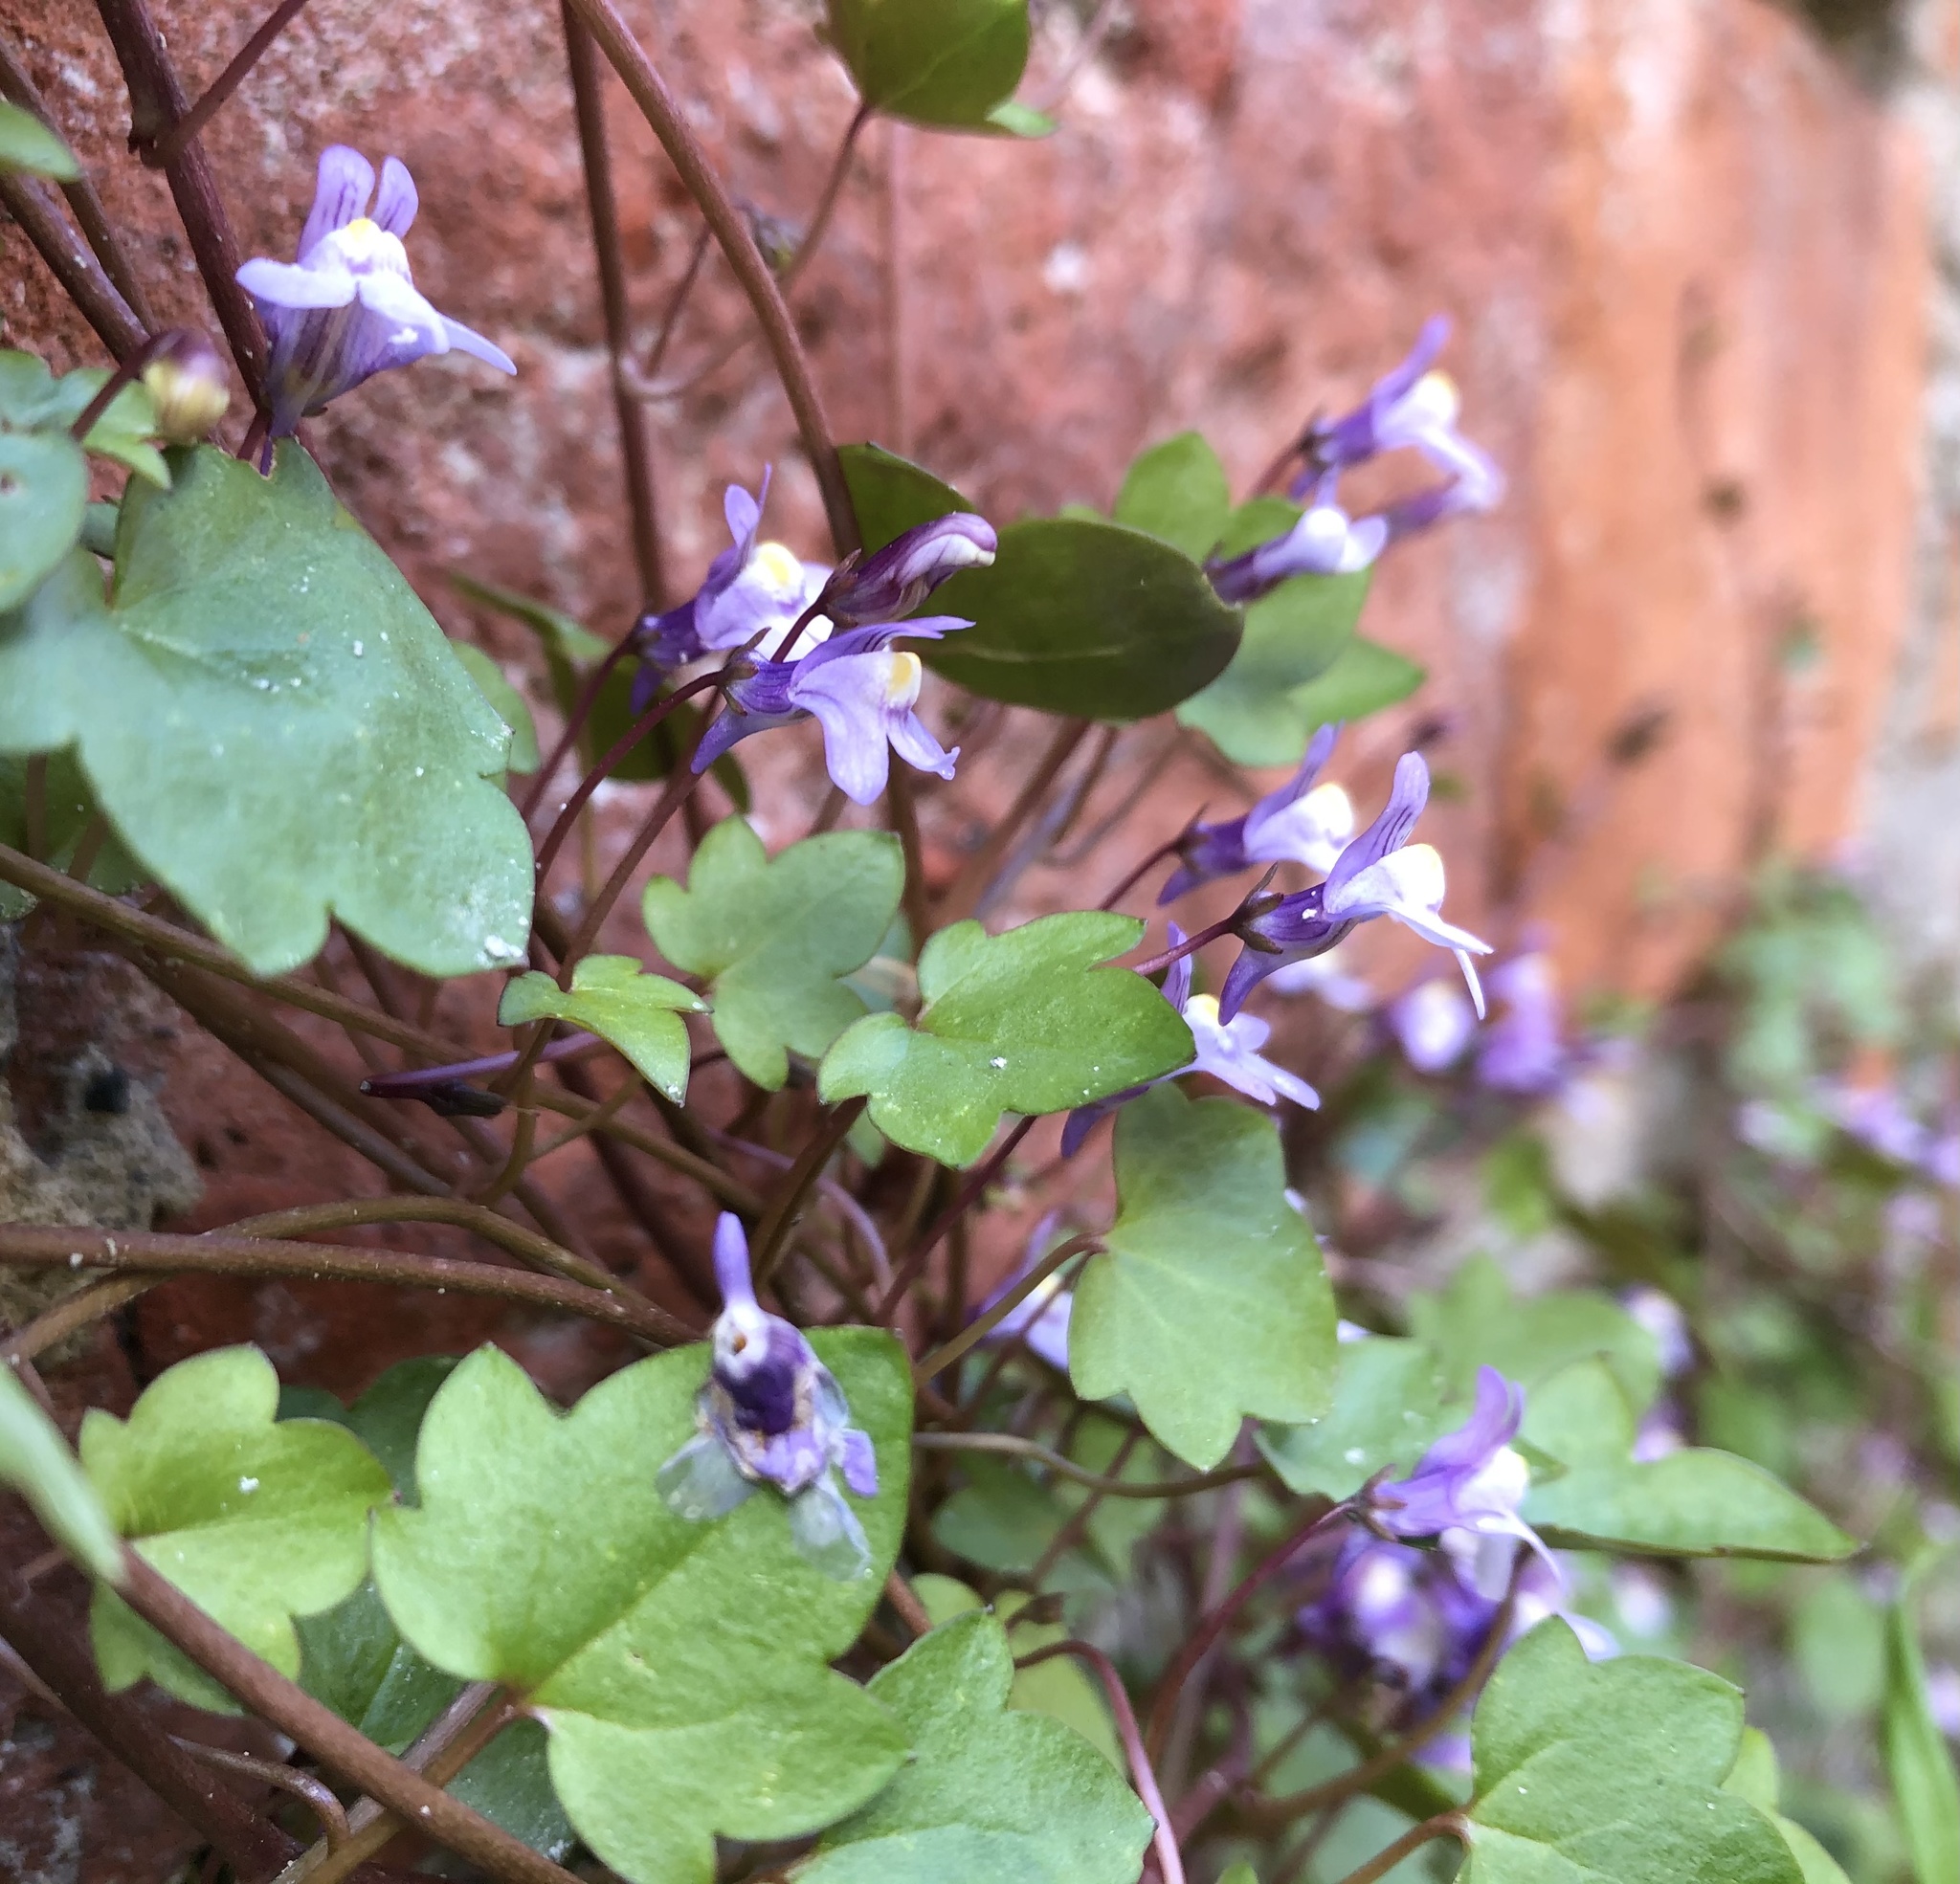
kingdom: Plantae
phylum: Tracheophyta
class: Magnoliopsida
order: Lamiales
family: Plantaginaceae
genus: Cymbalaria
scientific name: Cymbalaria muralis
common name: Ivy-leaved toadflax
